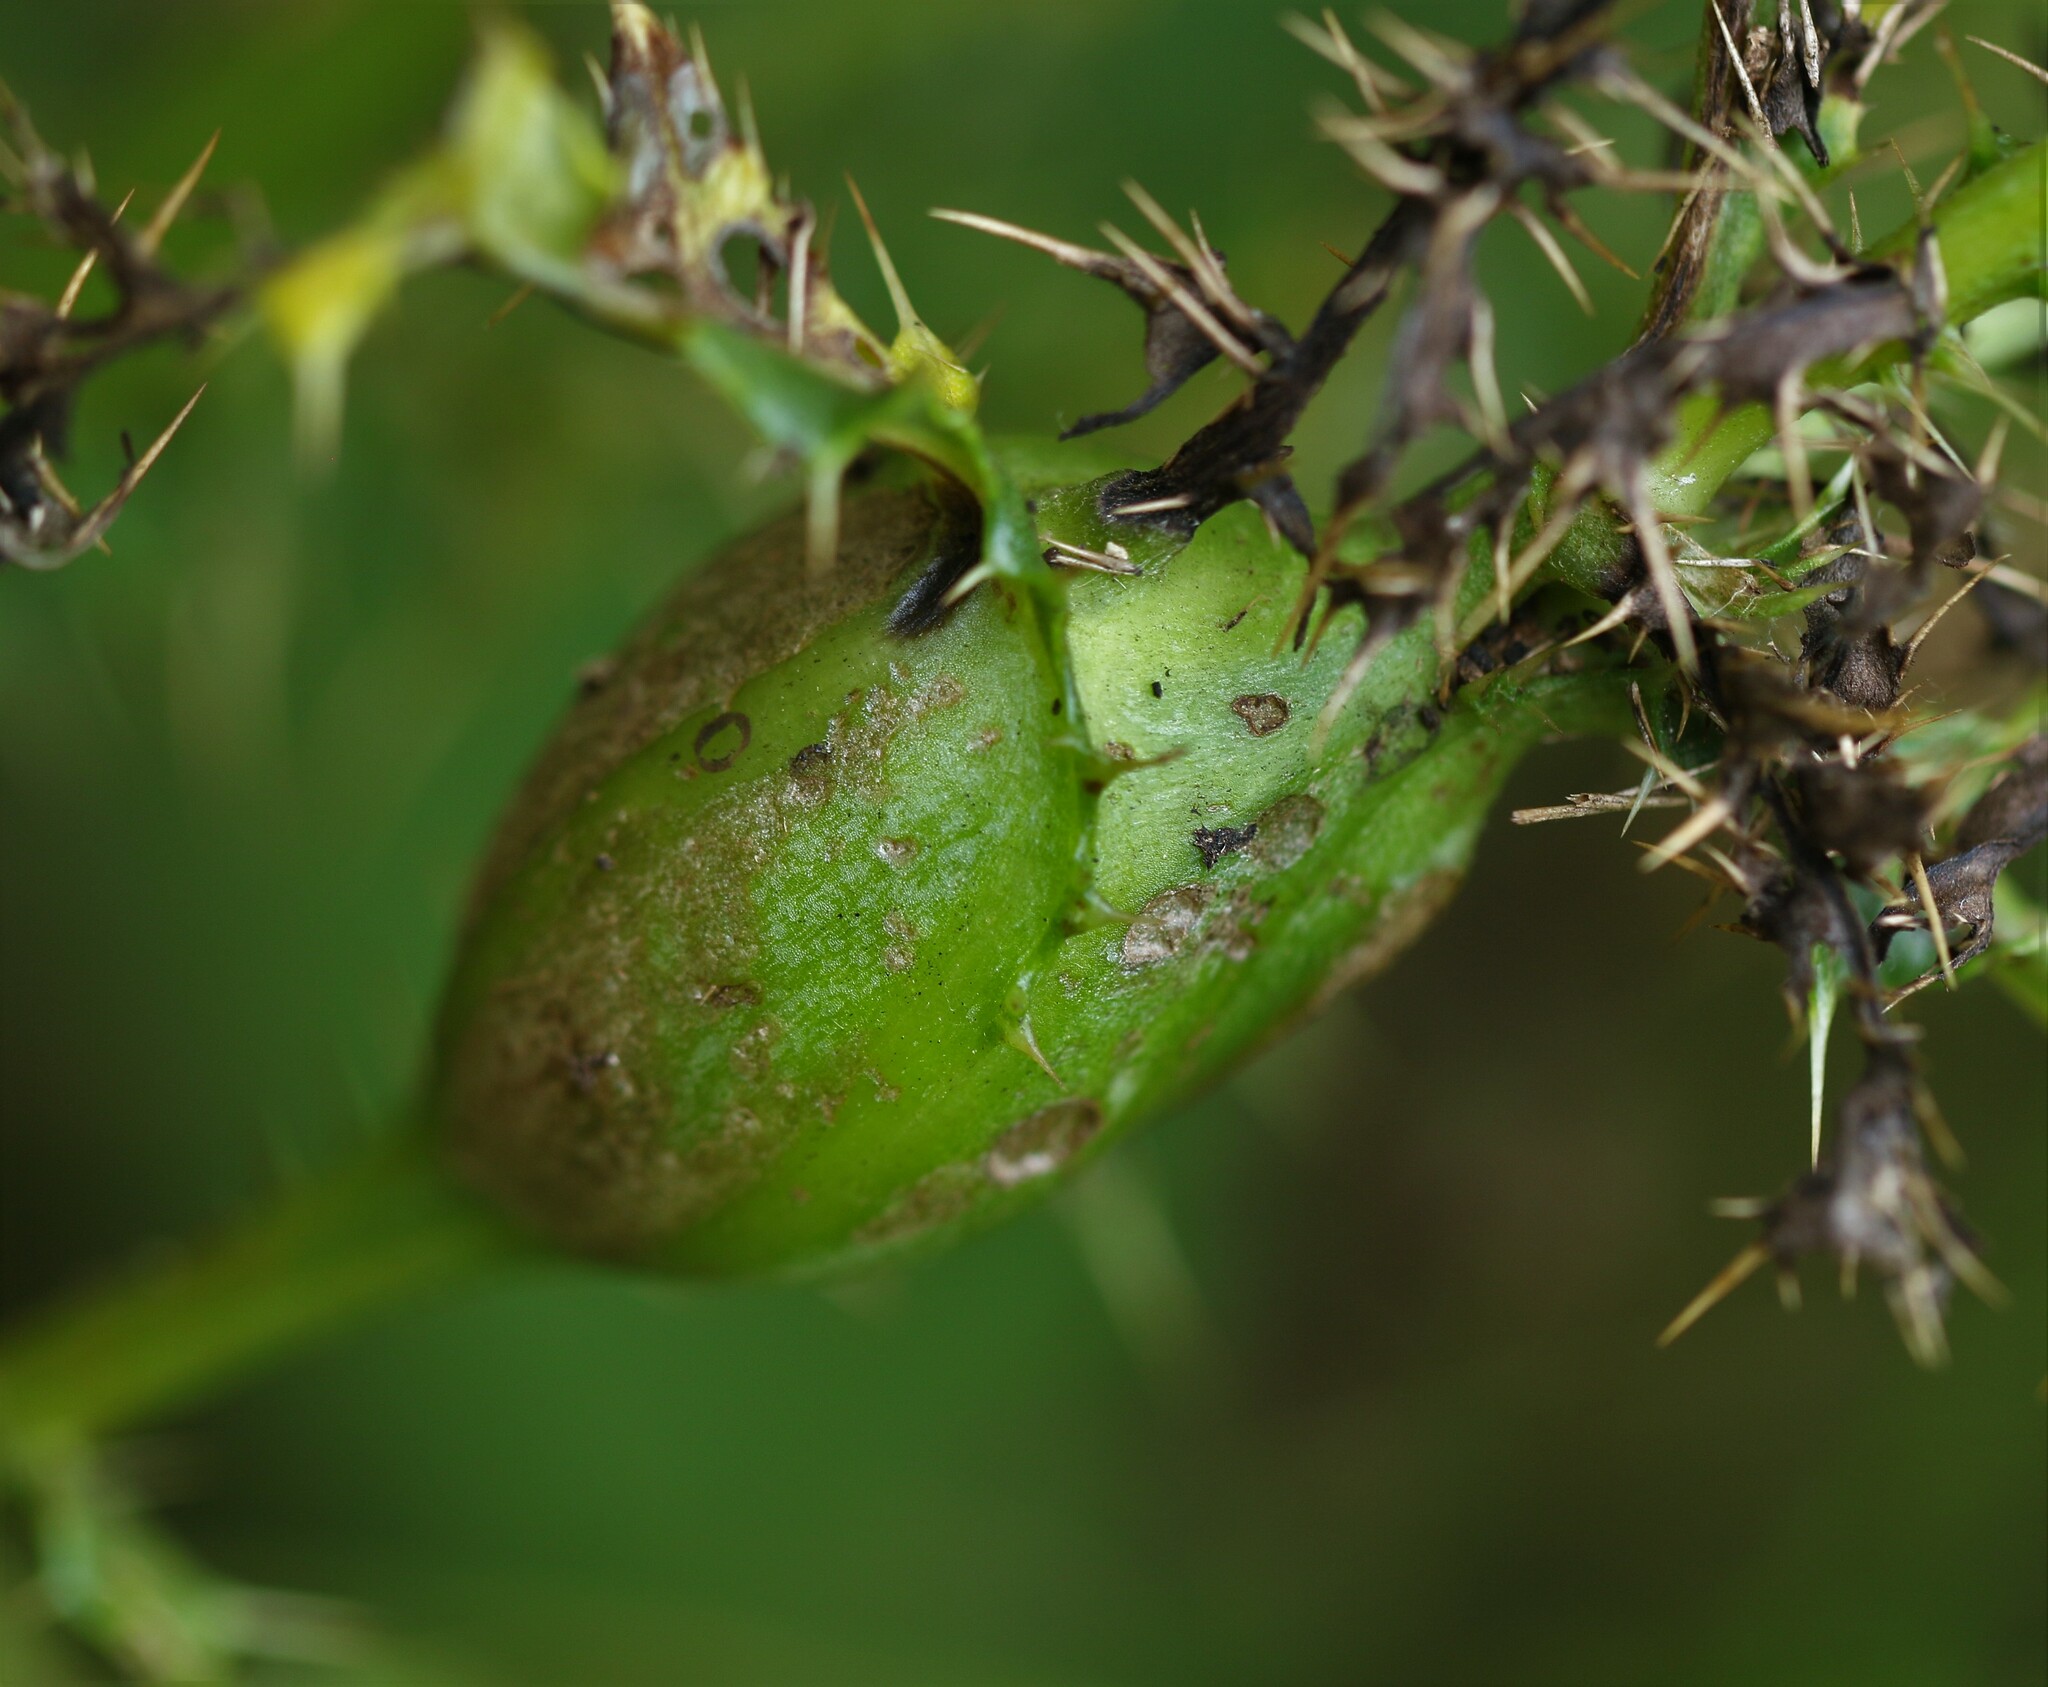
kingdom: Animalia
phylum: Arthropoda
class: Insecta
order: Diptera
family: Tephritidae
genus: Urophora
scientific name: Urophora cardui
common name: Fruit fly
